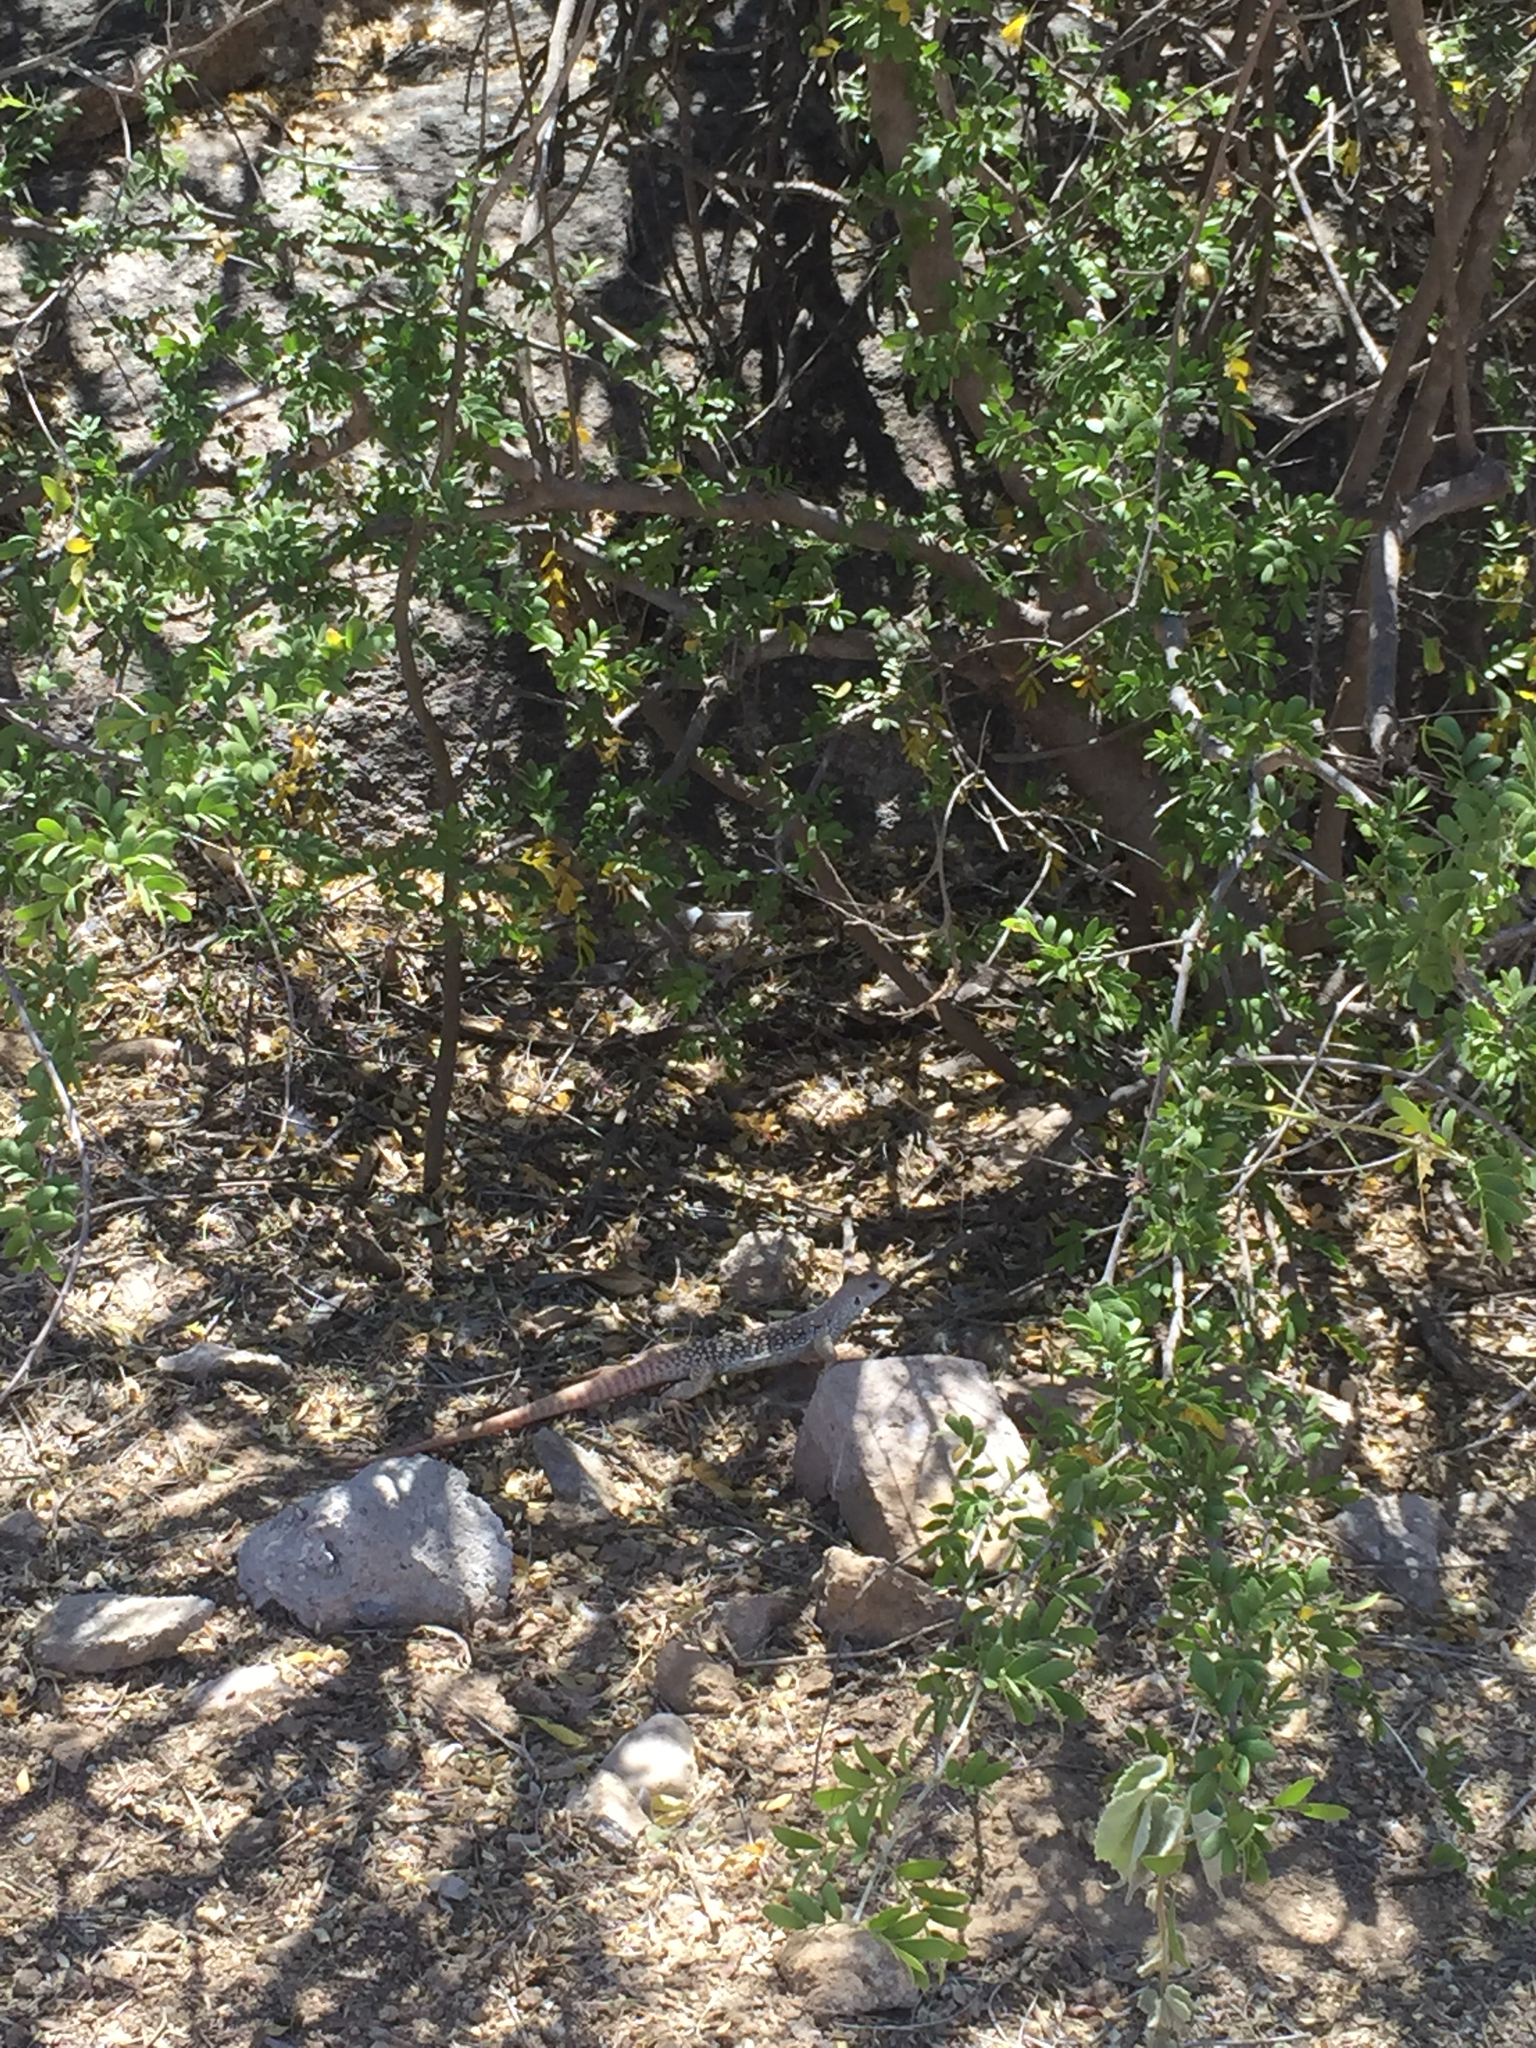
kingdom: Animalia
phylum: Chordata
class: Squamata
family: Iguanidae
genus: Dipsosaurus
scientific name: Dipsosaurus dorsalis
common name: Desert iguana
